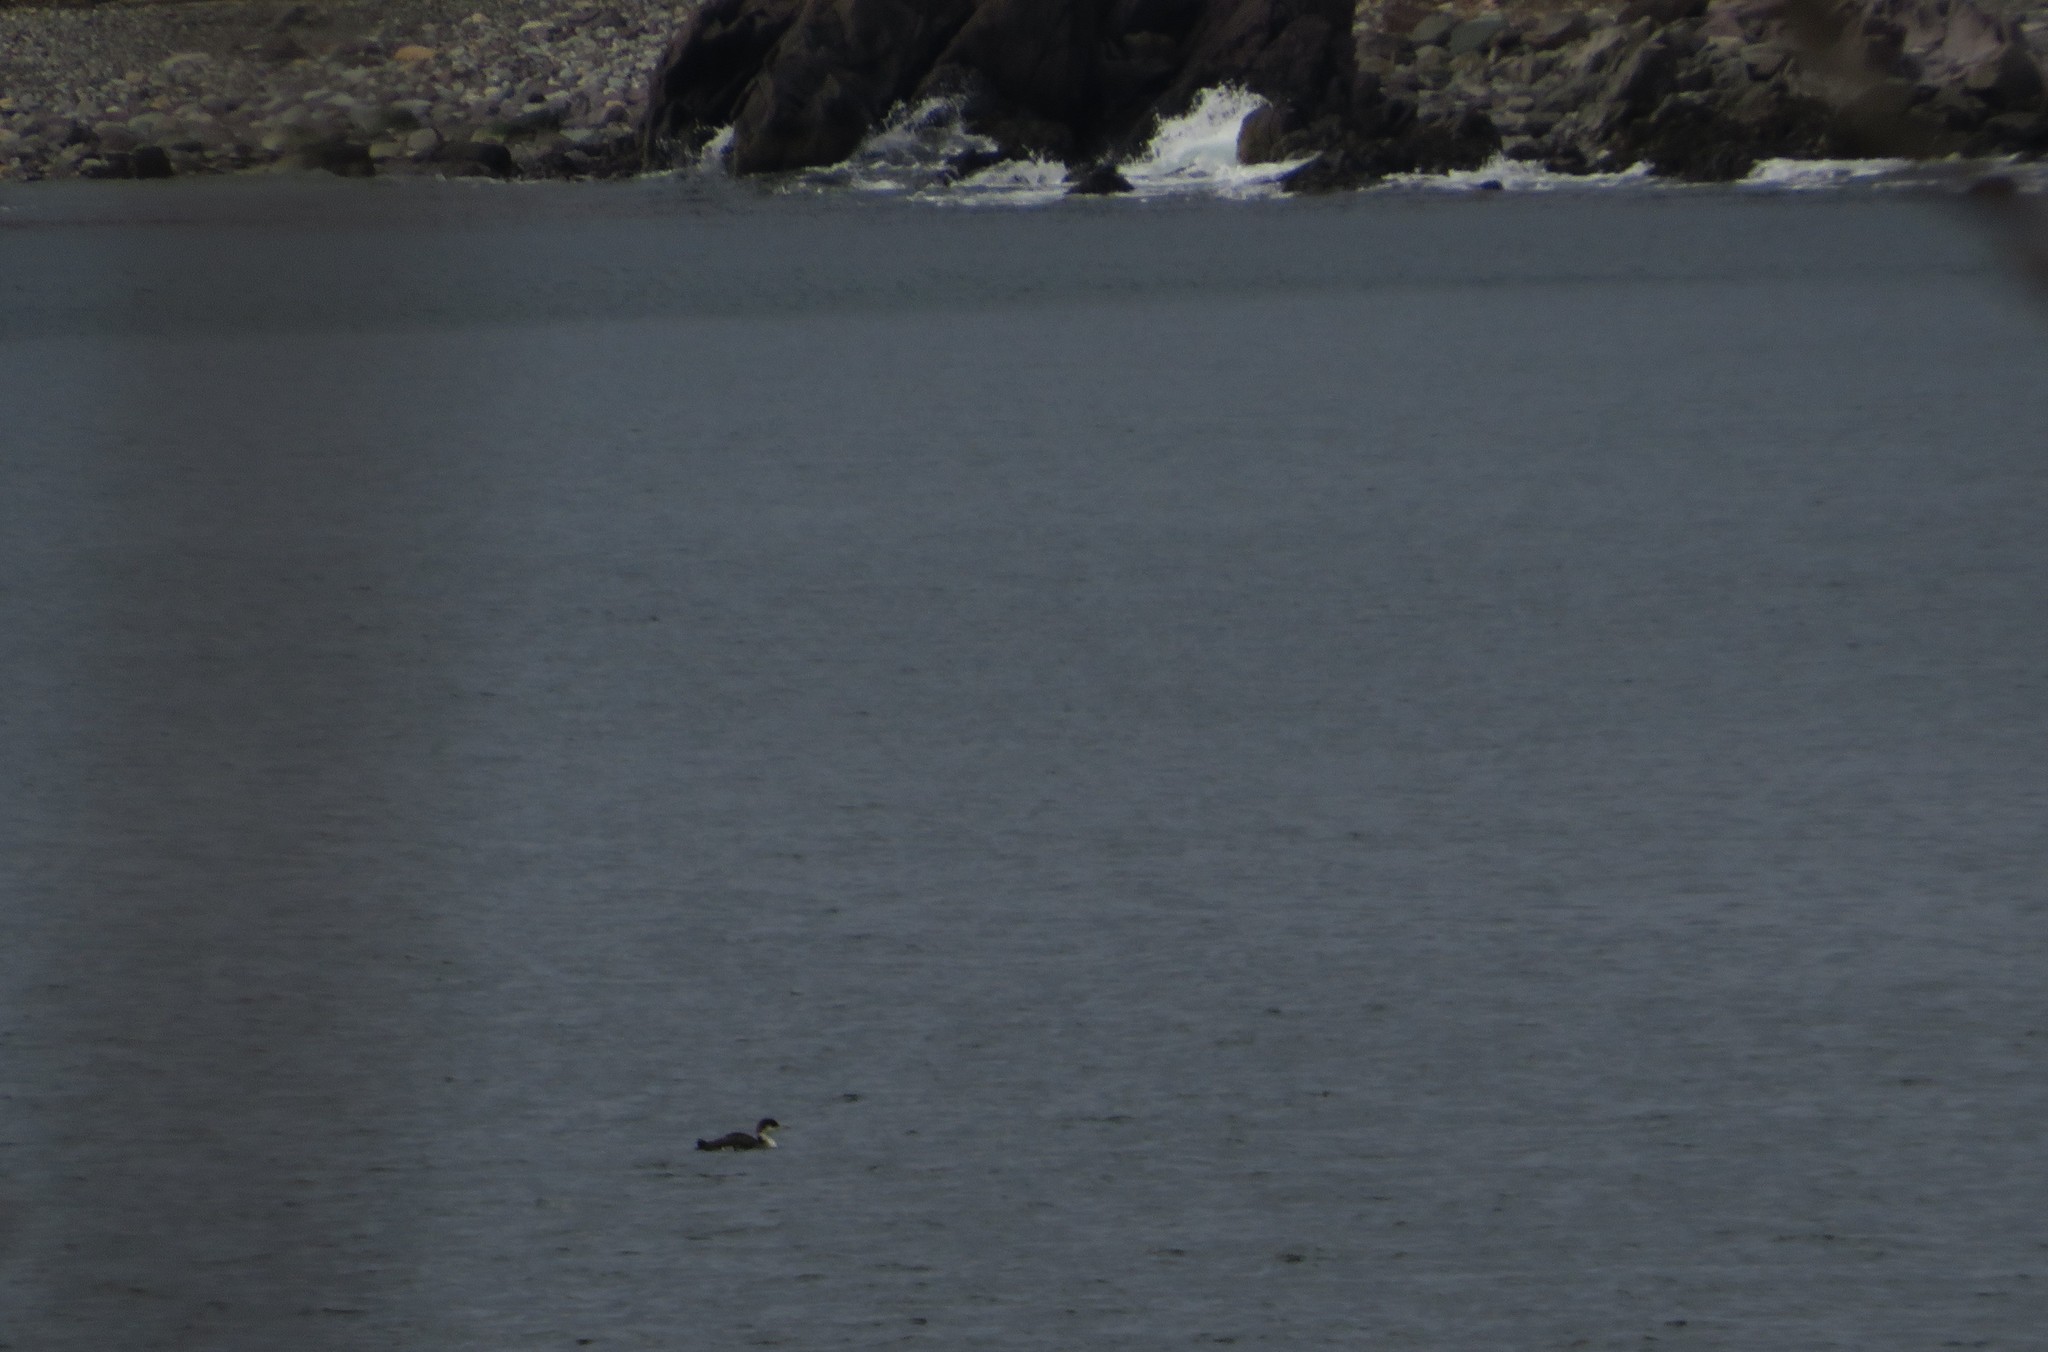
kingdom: Animalia
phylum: Chordata
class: Aves
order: Gaviiformes
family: Gaviidae
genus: Gavia
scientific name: Gavia immer
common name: Common loon
